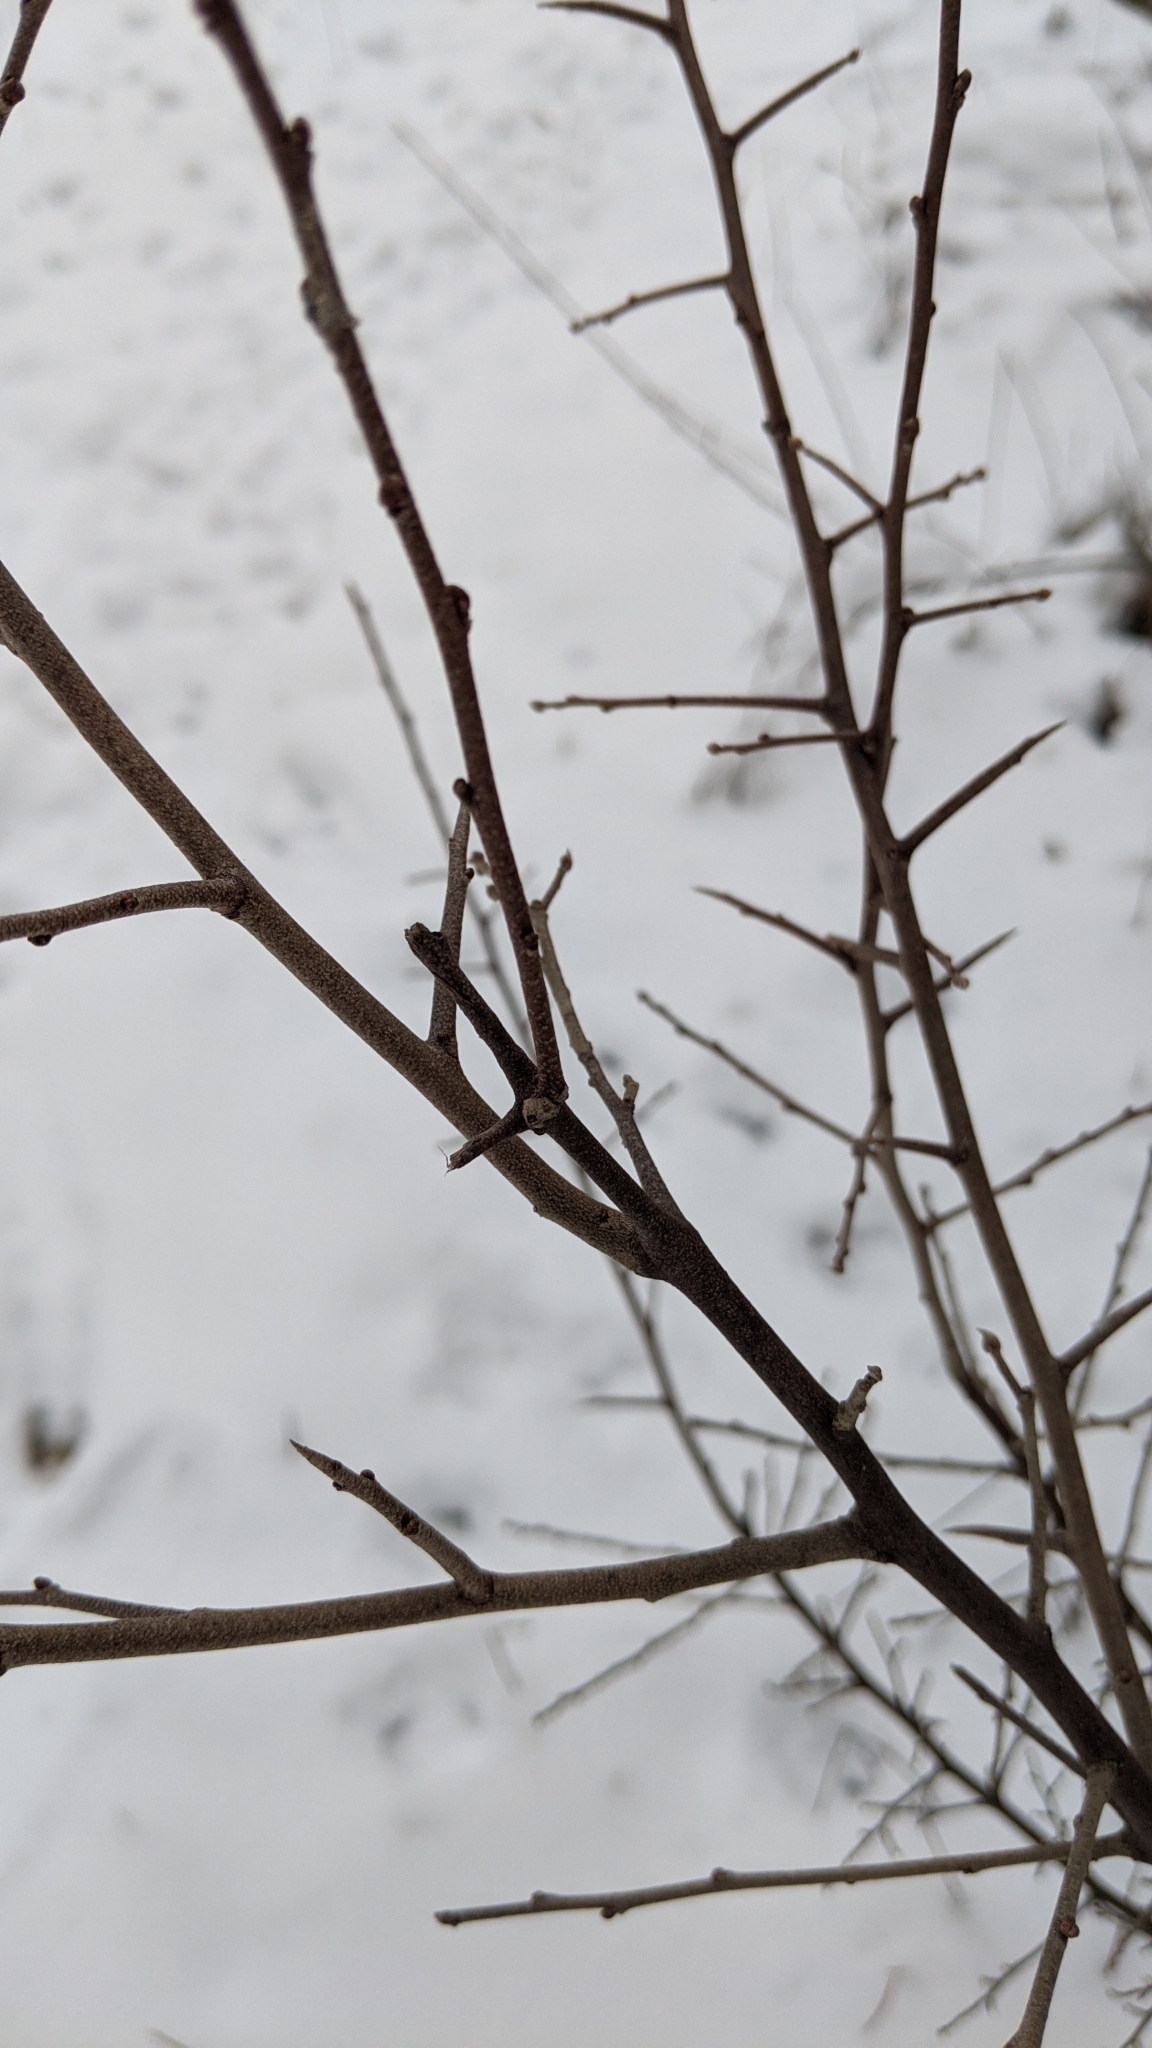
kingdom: Plantae
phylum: Tracheophyta
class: Magnoliopsida
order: Rosales
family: Elaeagnaceae
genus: Elaeagnus
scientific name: Elaeagnus umbellata
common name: Autumn olive
